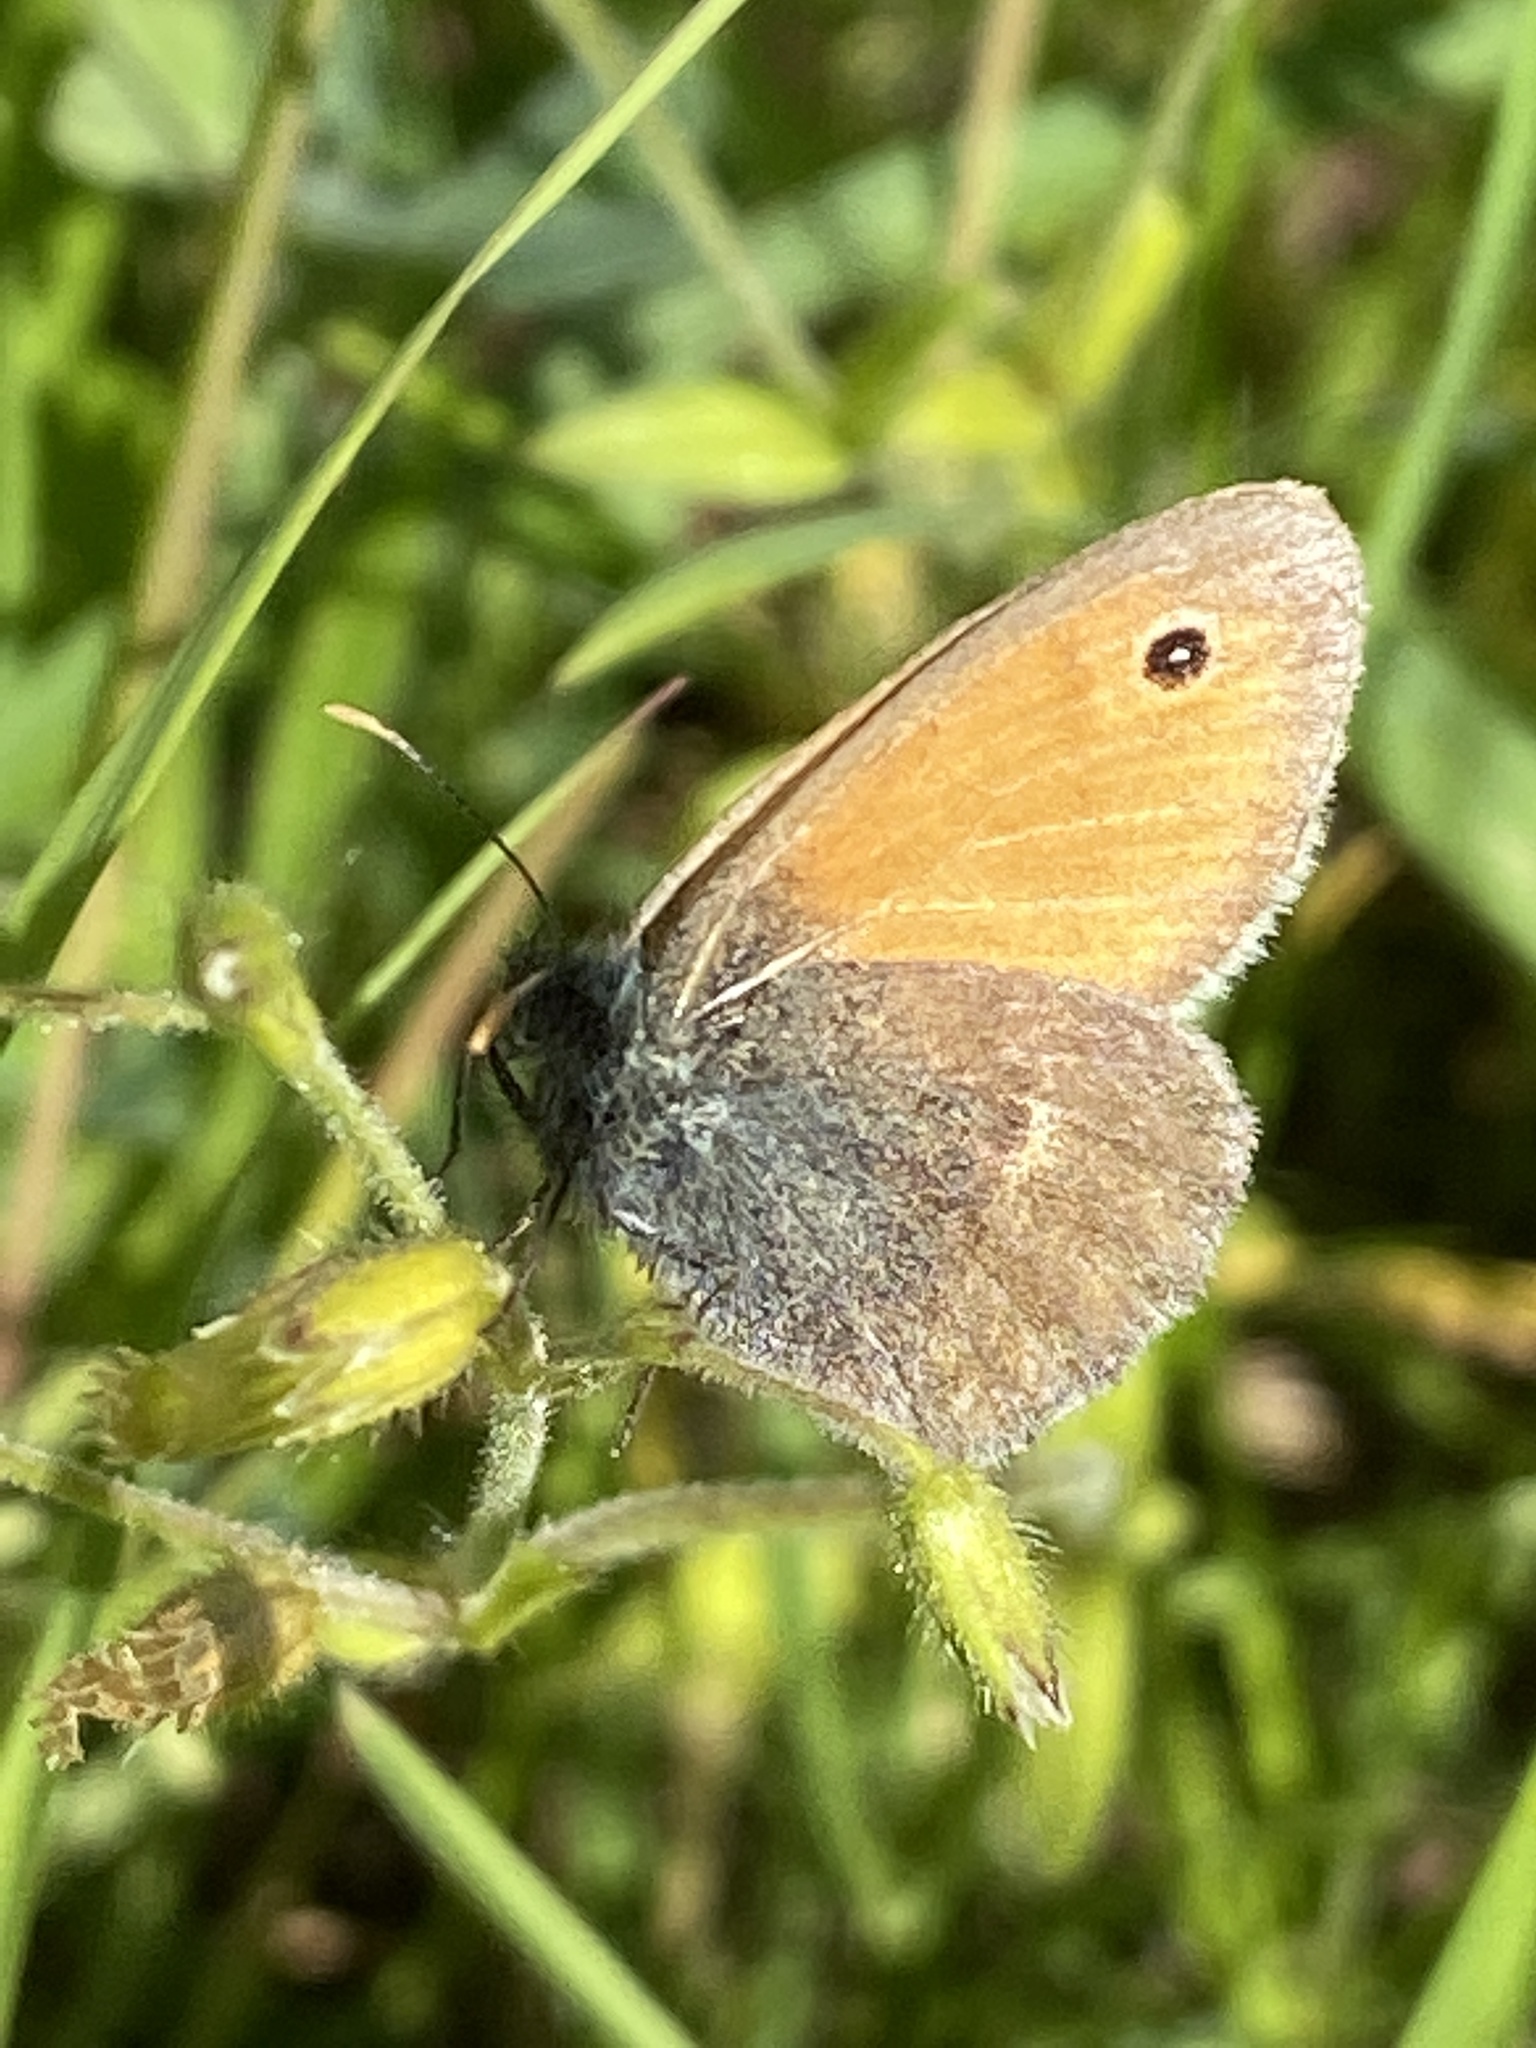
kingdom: Animalia
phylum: Arthropoda
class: Insecta
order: Lepidoptera
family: Nymphalidae
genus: Coenonympha
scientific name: Coenonympha pamphilus
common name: Small heath
